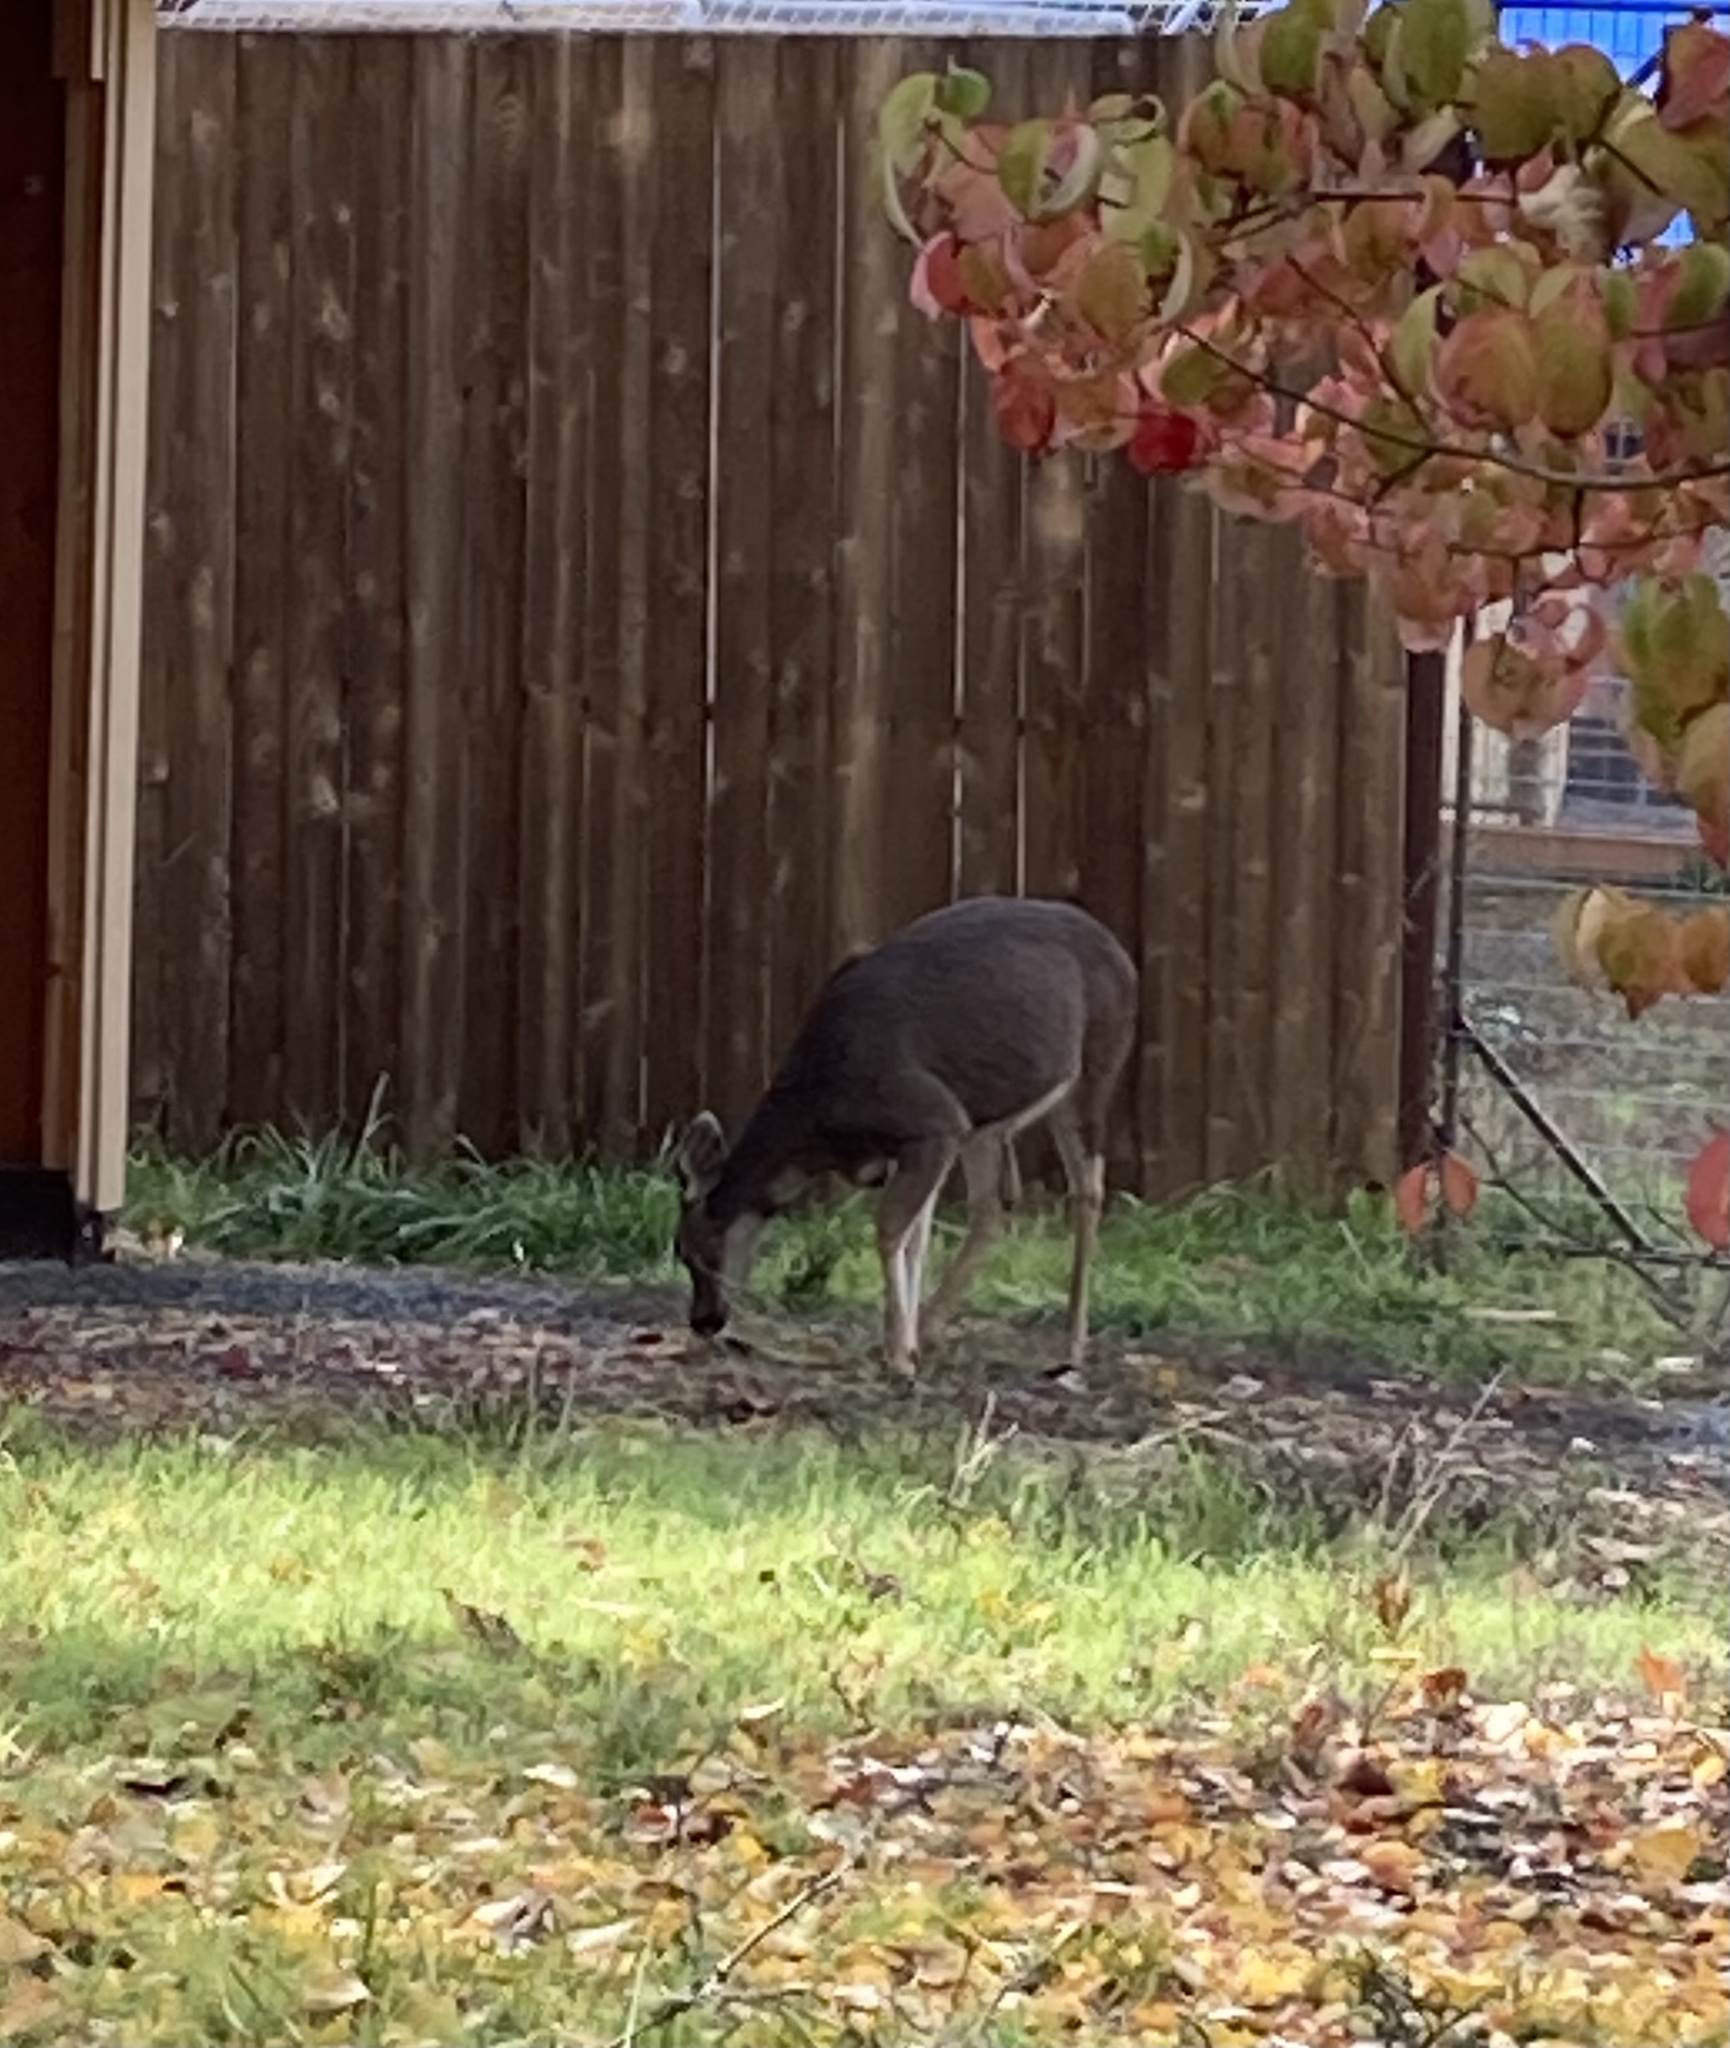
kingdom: Animalia
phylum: Chordata
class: Mammalia
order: Artiodactyla
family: Cervidae
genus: Odocoileus
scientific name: Odocoileus hemionus
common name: Mule deer
